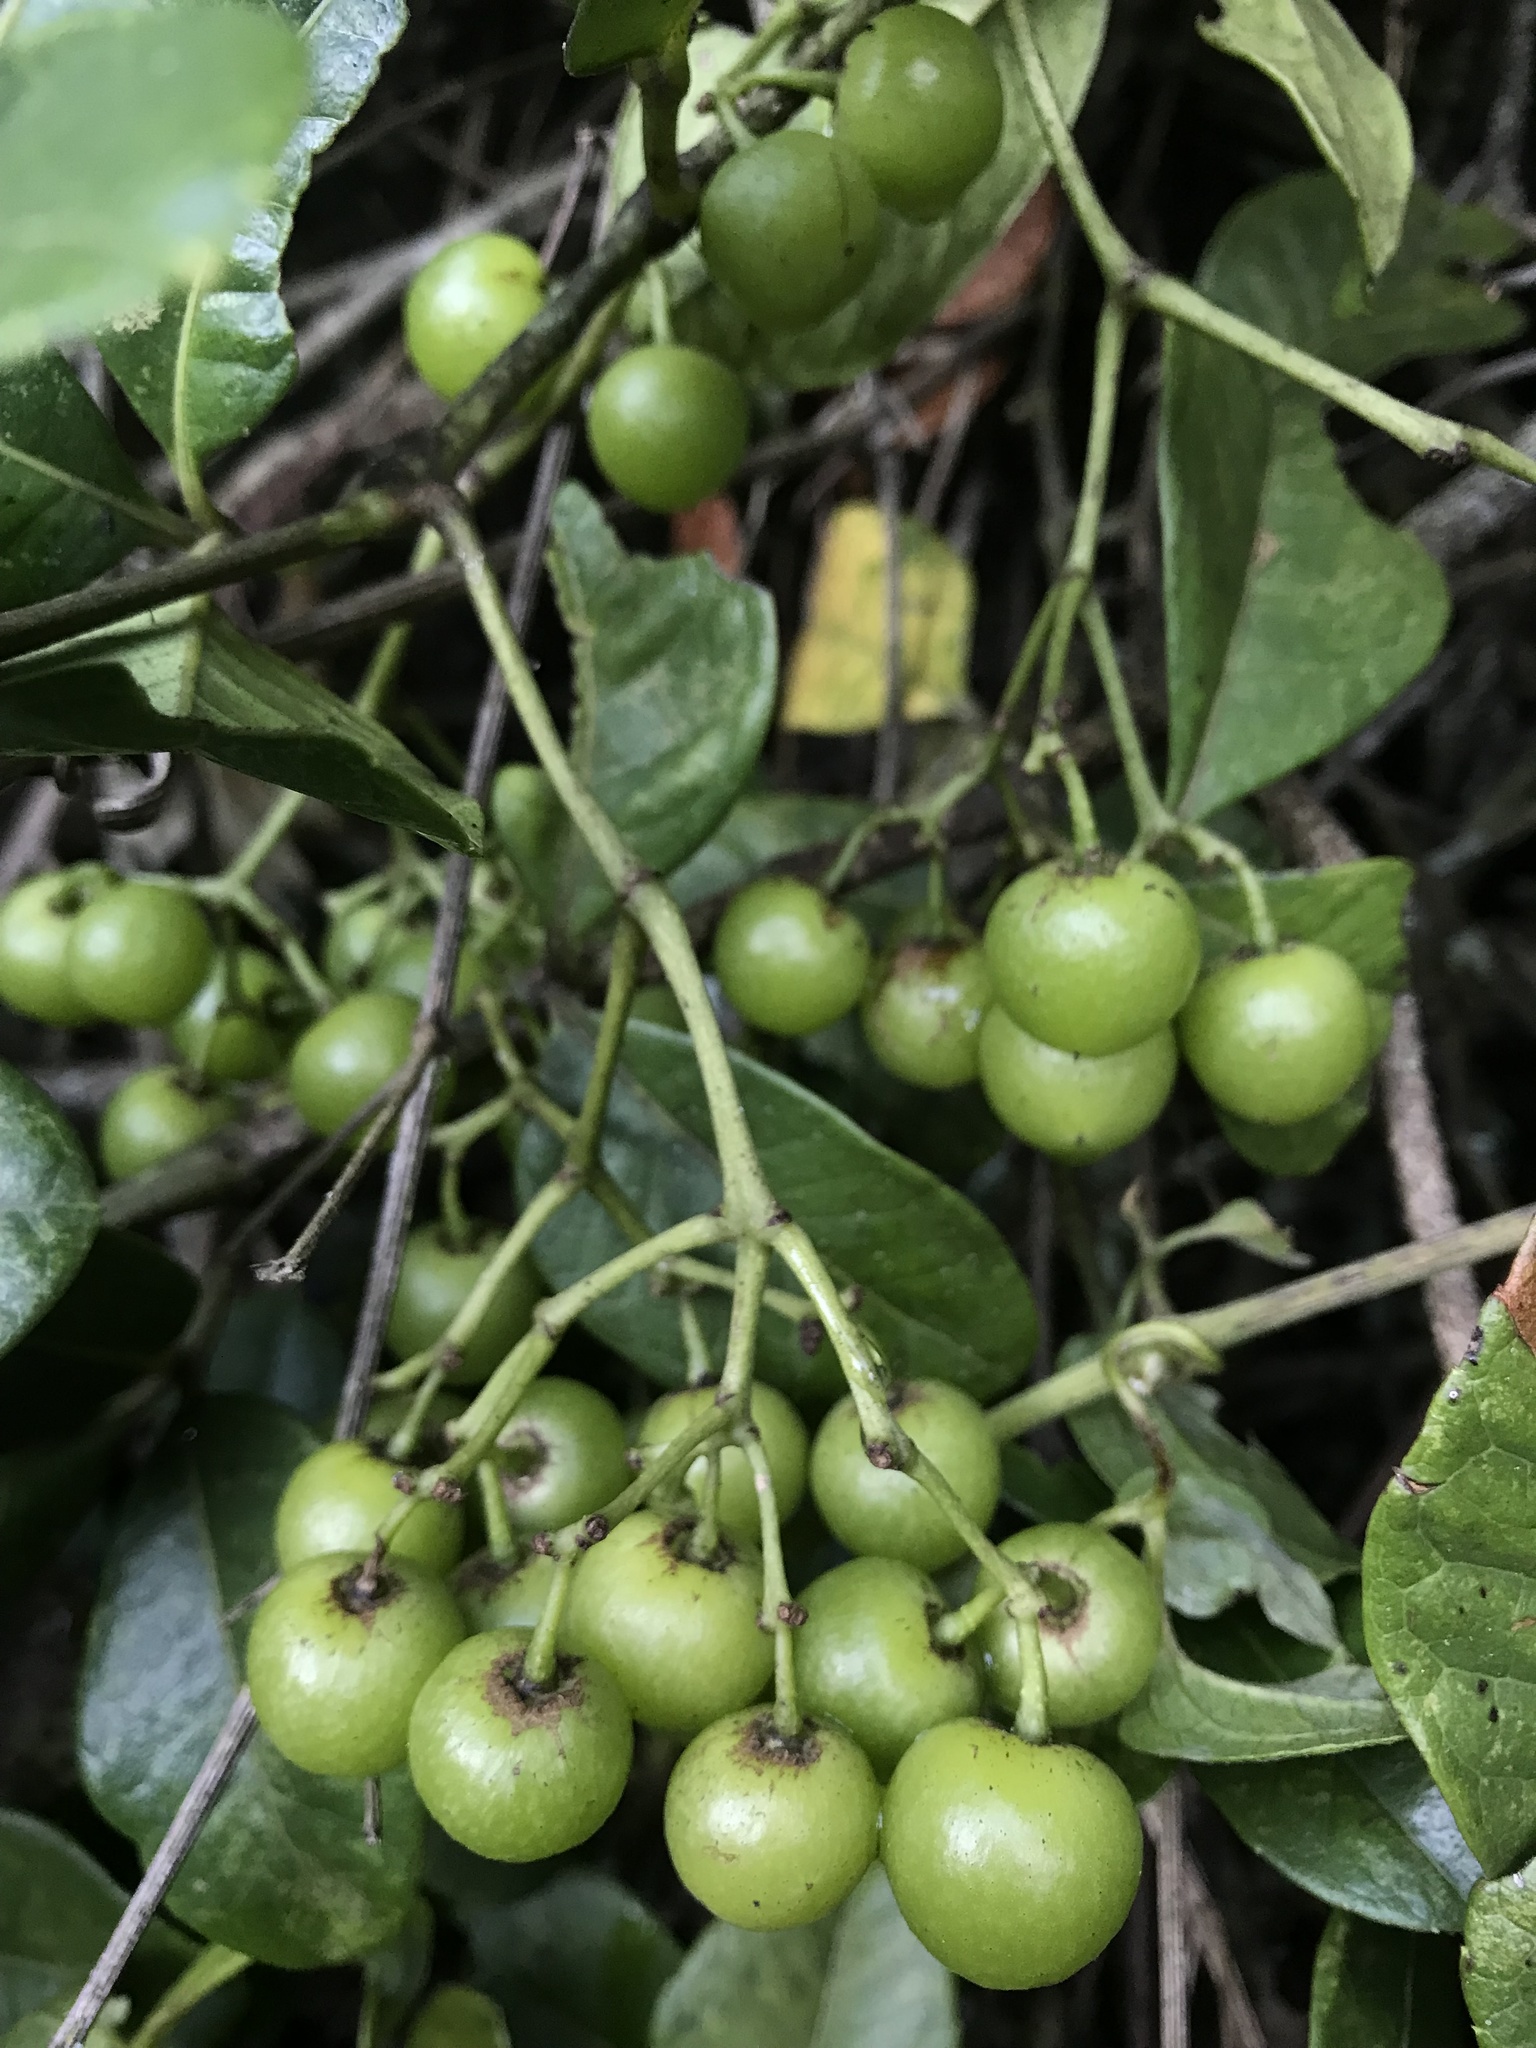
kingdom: Plantae
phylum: Tracheophyta
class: Magnoliopsida
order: Vitales
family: Vitaceae
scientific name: Vitaceae
